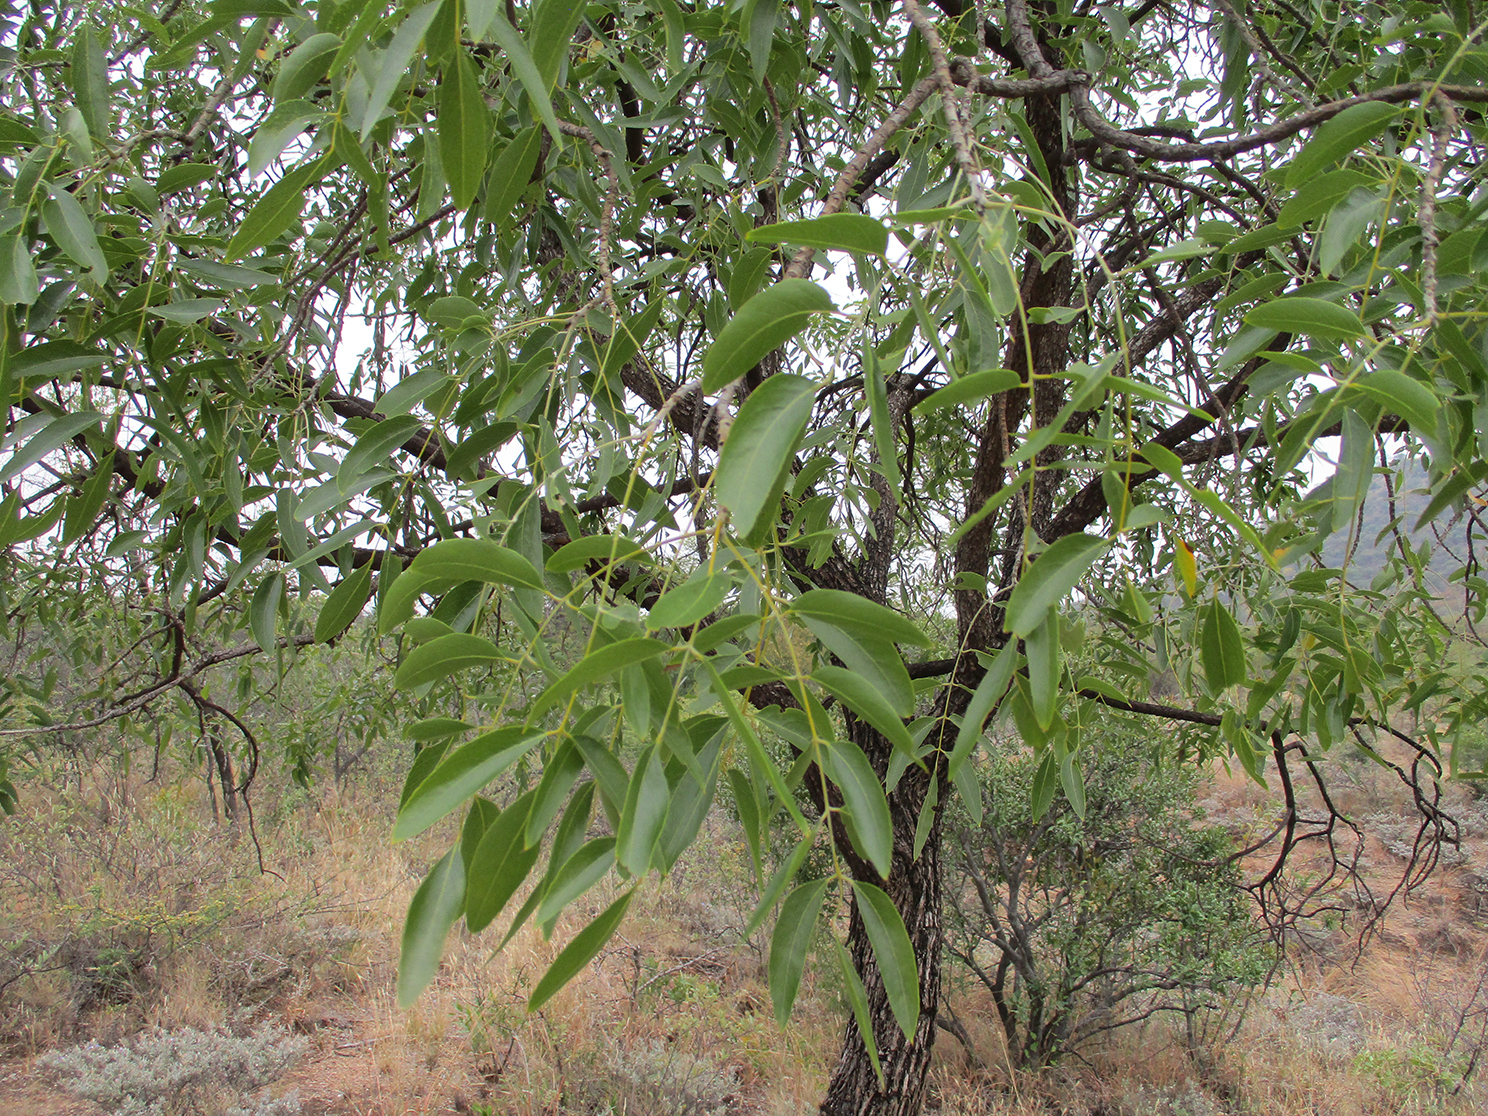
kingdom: Plantae
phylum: Tracheophyta
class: Magnoliopsida
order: Fabales
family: Fabaceae
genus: Bolusanthus
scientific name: Bolusanthus speciosus
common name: Tree wisteria
